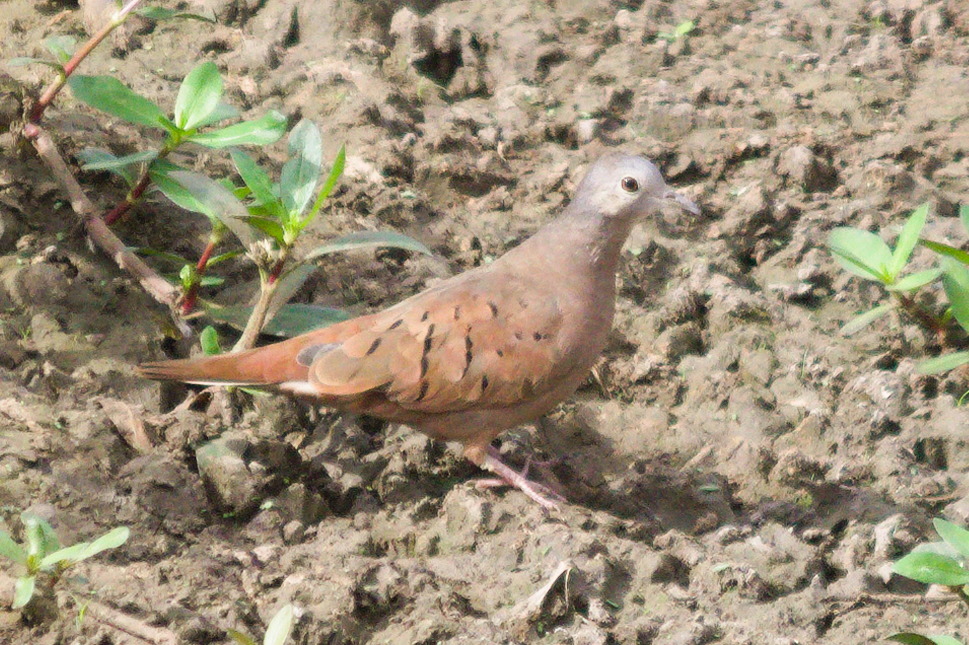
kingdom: Animalia
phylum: Chordata
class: Aves
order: Columbiformes
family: Columbidae
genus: Columbina
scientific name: Columbina talpacoti
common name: Ruddy ground dove
